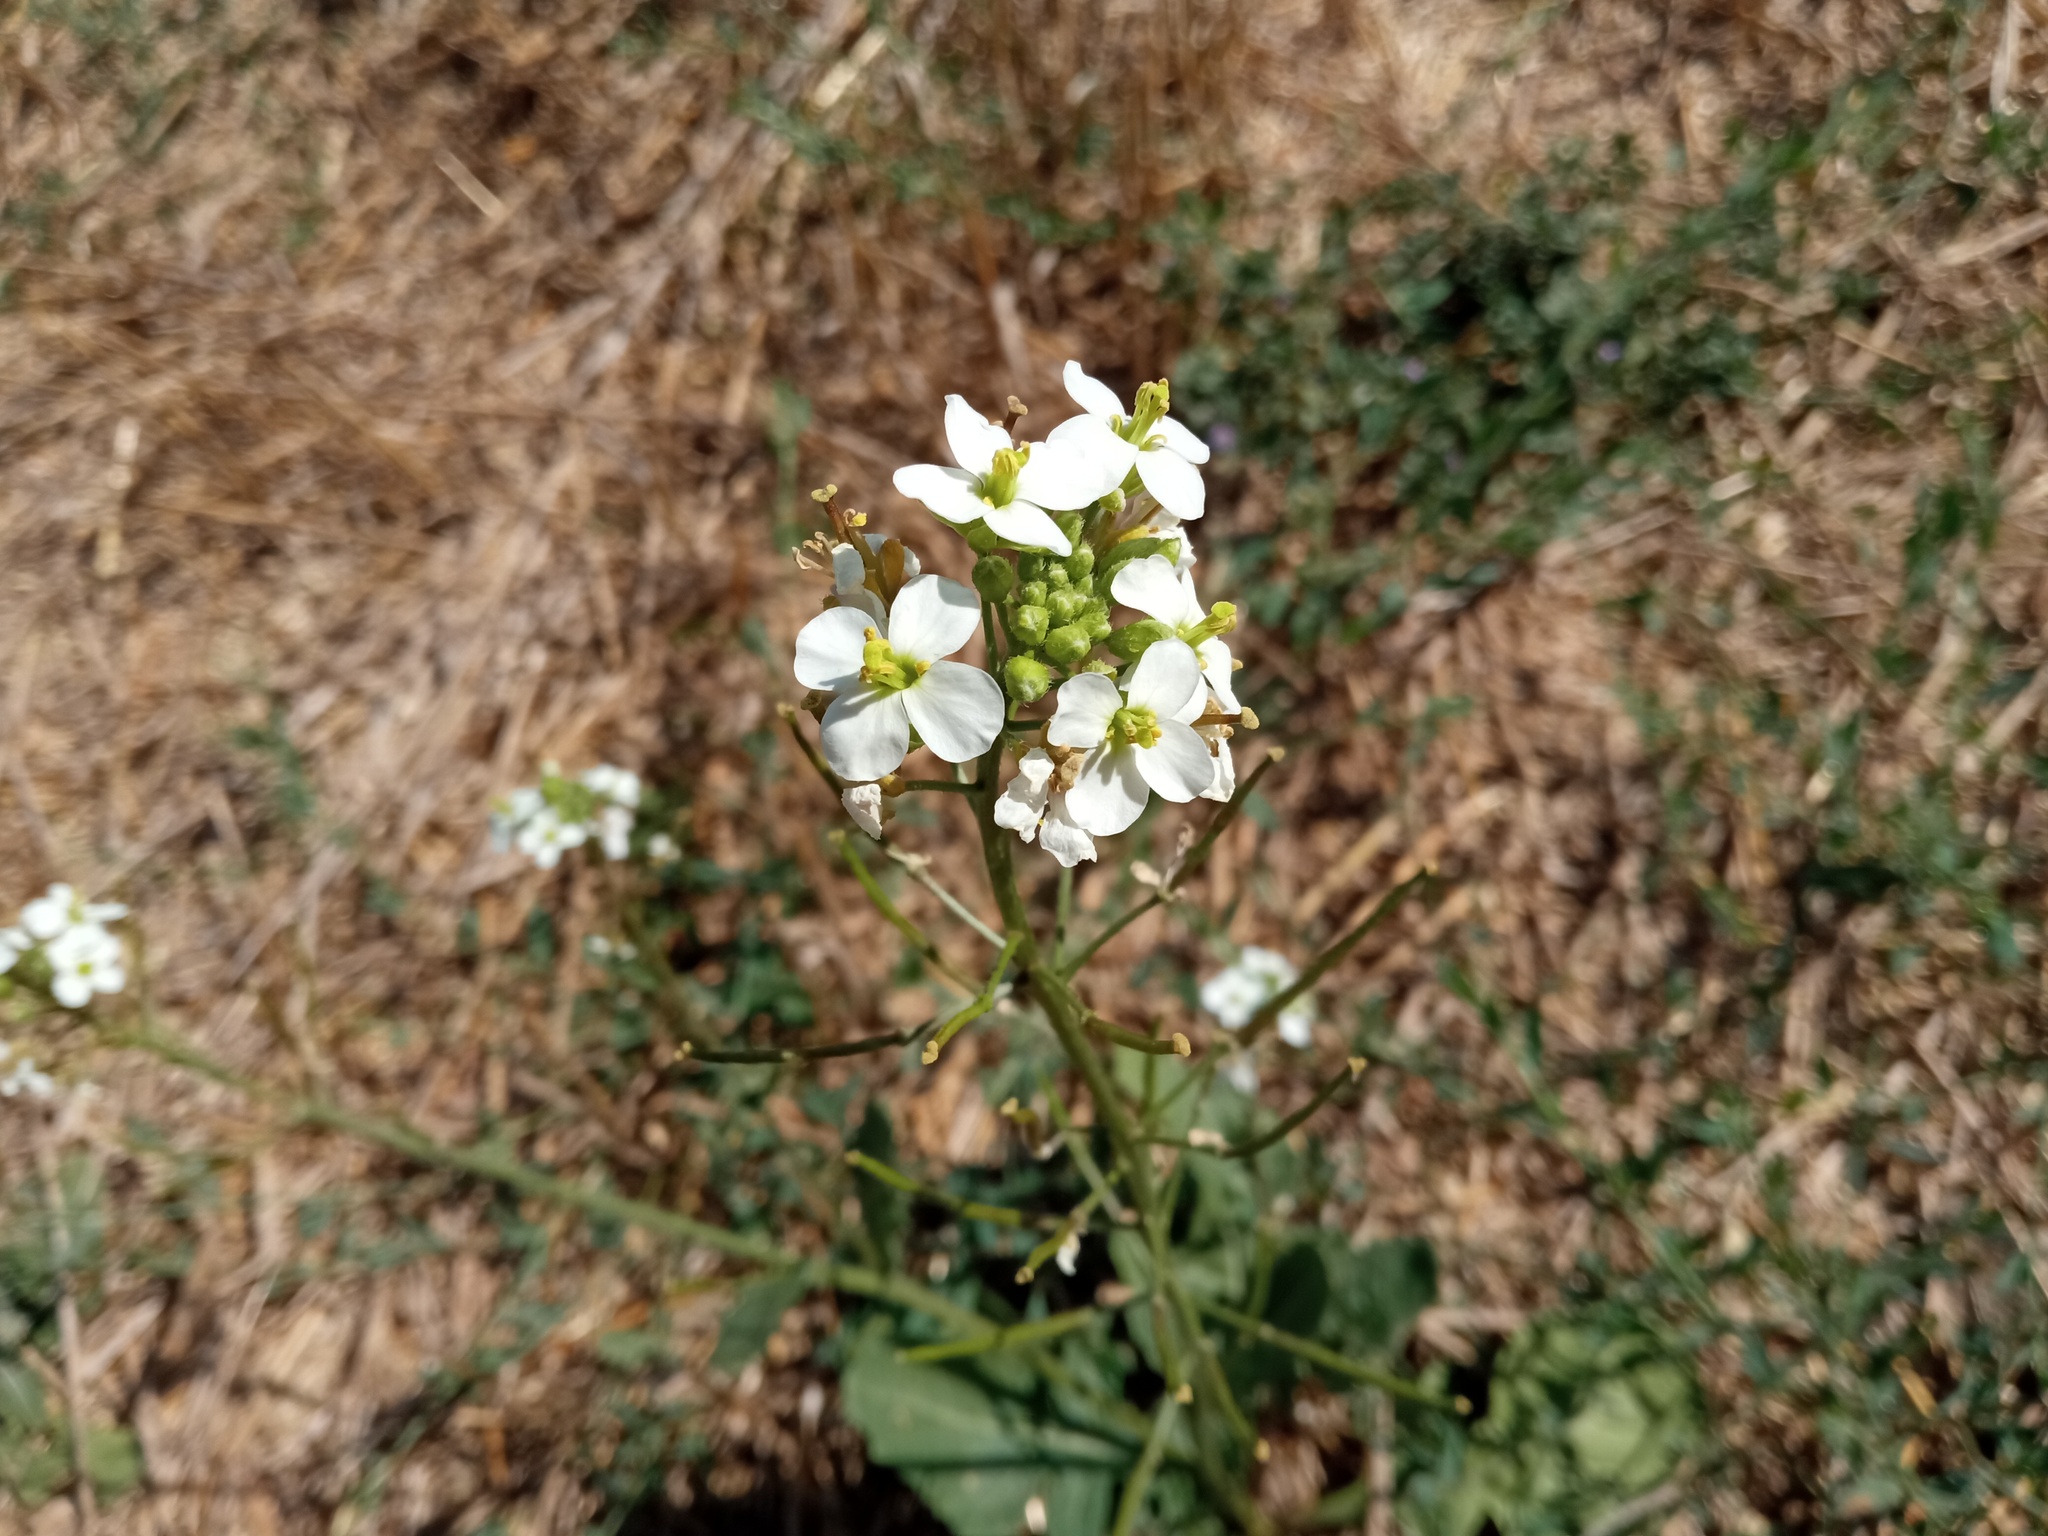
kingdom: Plantae
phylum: Tracheophyta
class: Magnoliopsida
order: Brassicales
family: Brassicaceae
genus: Diplotaxis
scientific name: Diplotaxis erucoides
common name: White rocket
